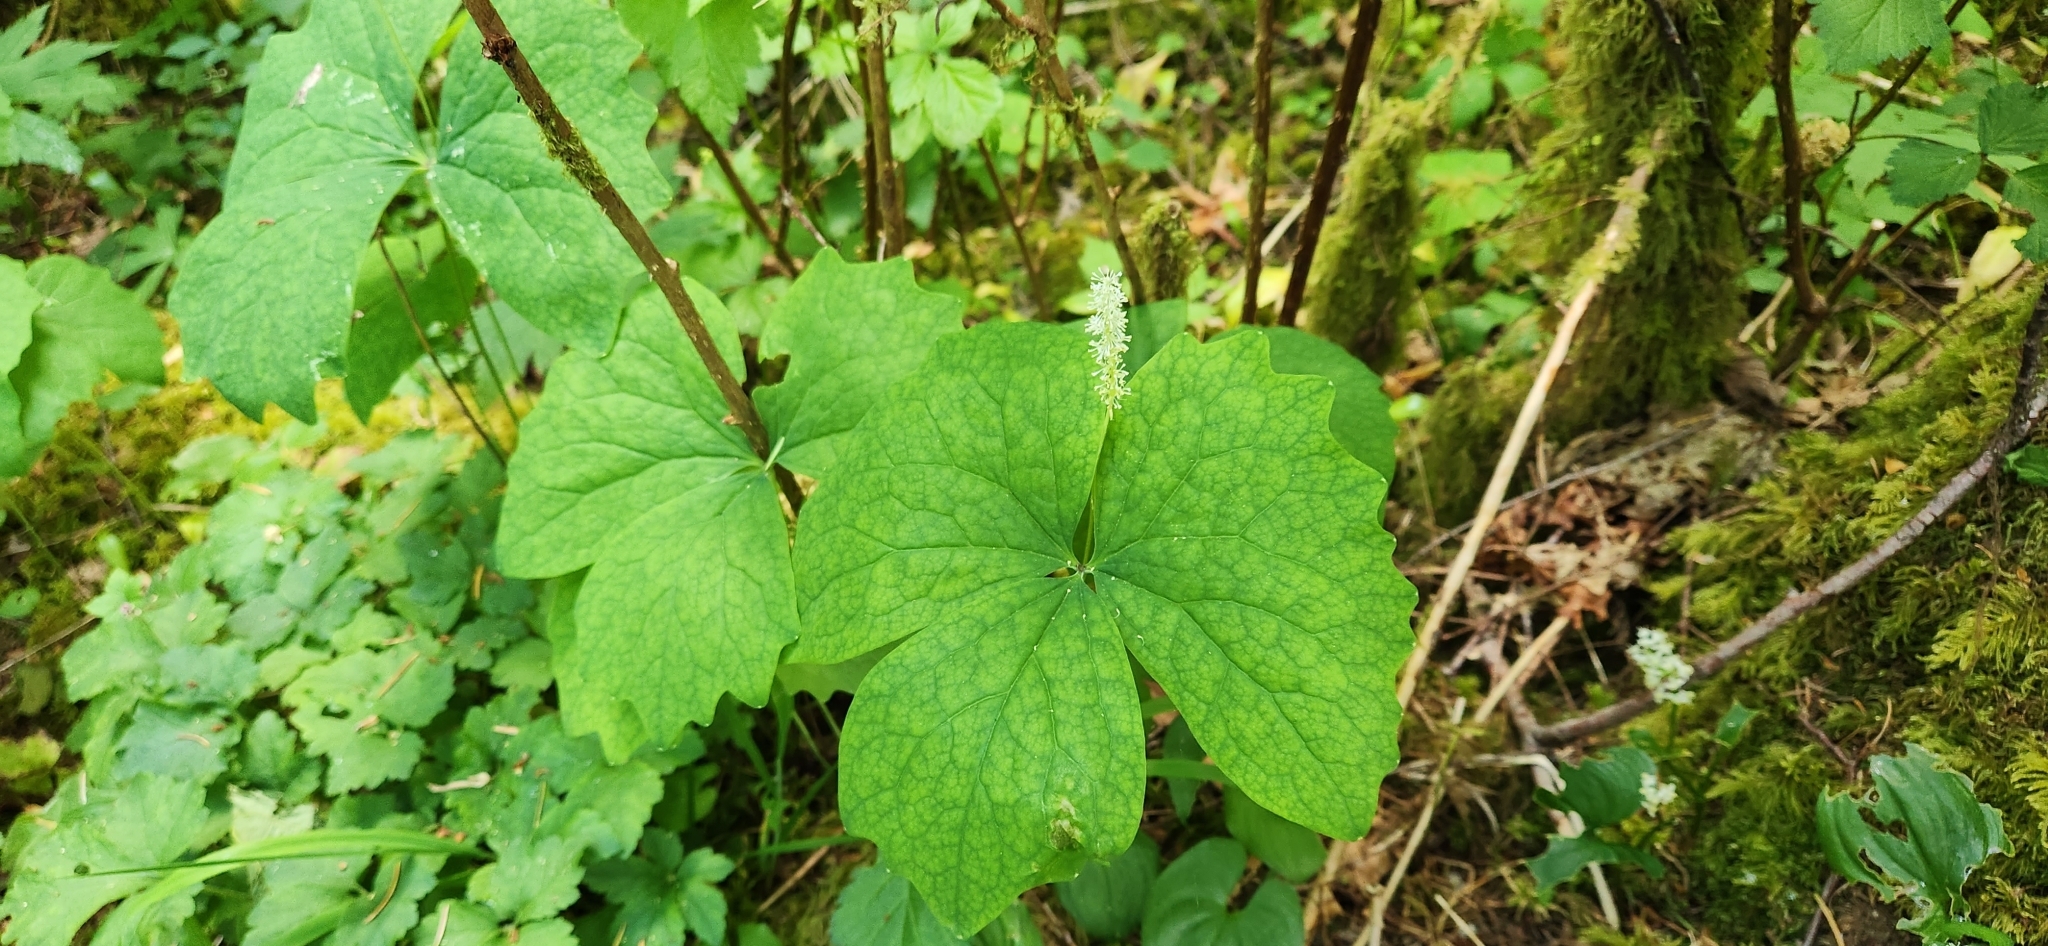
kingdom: Plantae
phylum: Tracheophyta
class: Magnoliopsida
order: Ranunculales
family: Berberidaceae
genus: Achlys
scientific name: Achlys triphylla
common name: Vanilla-leaf
